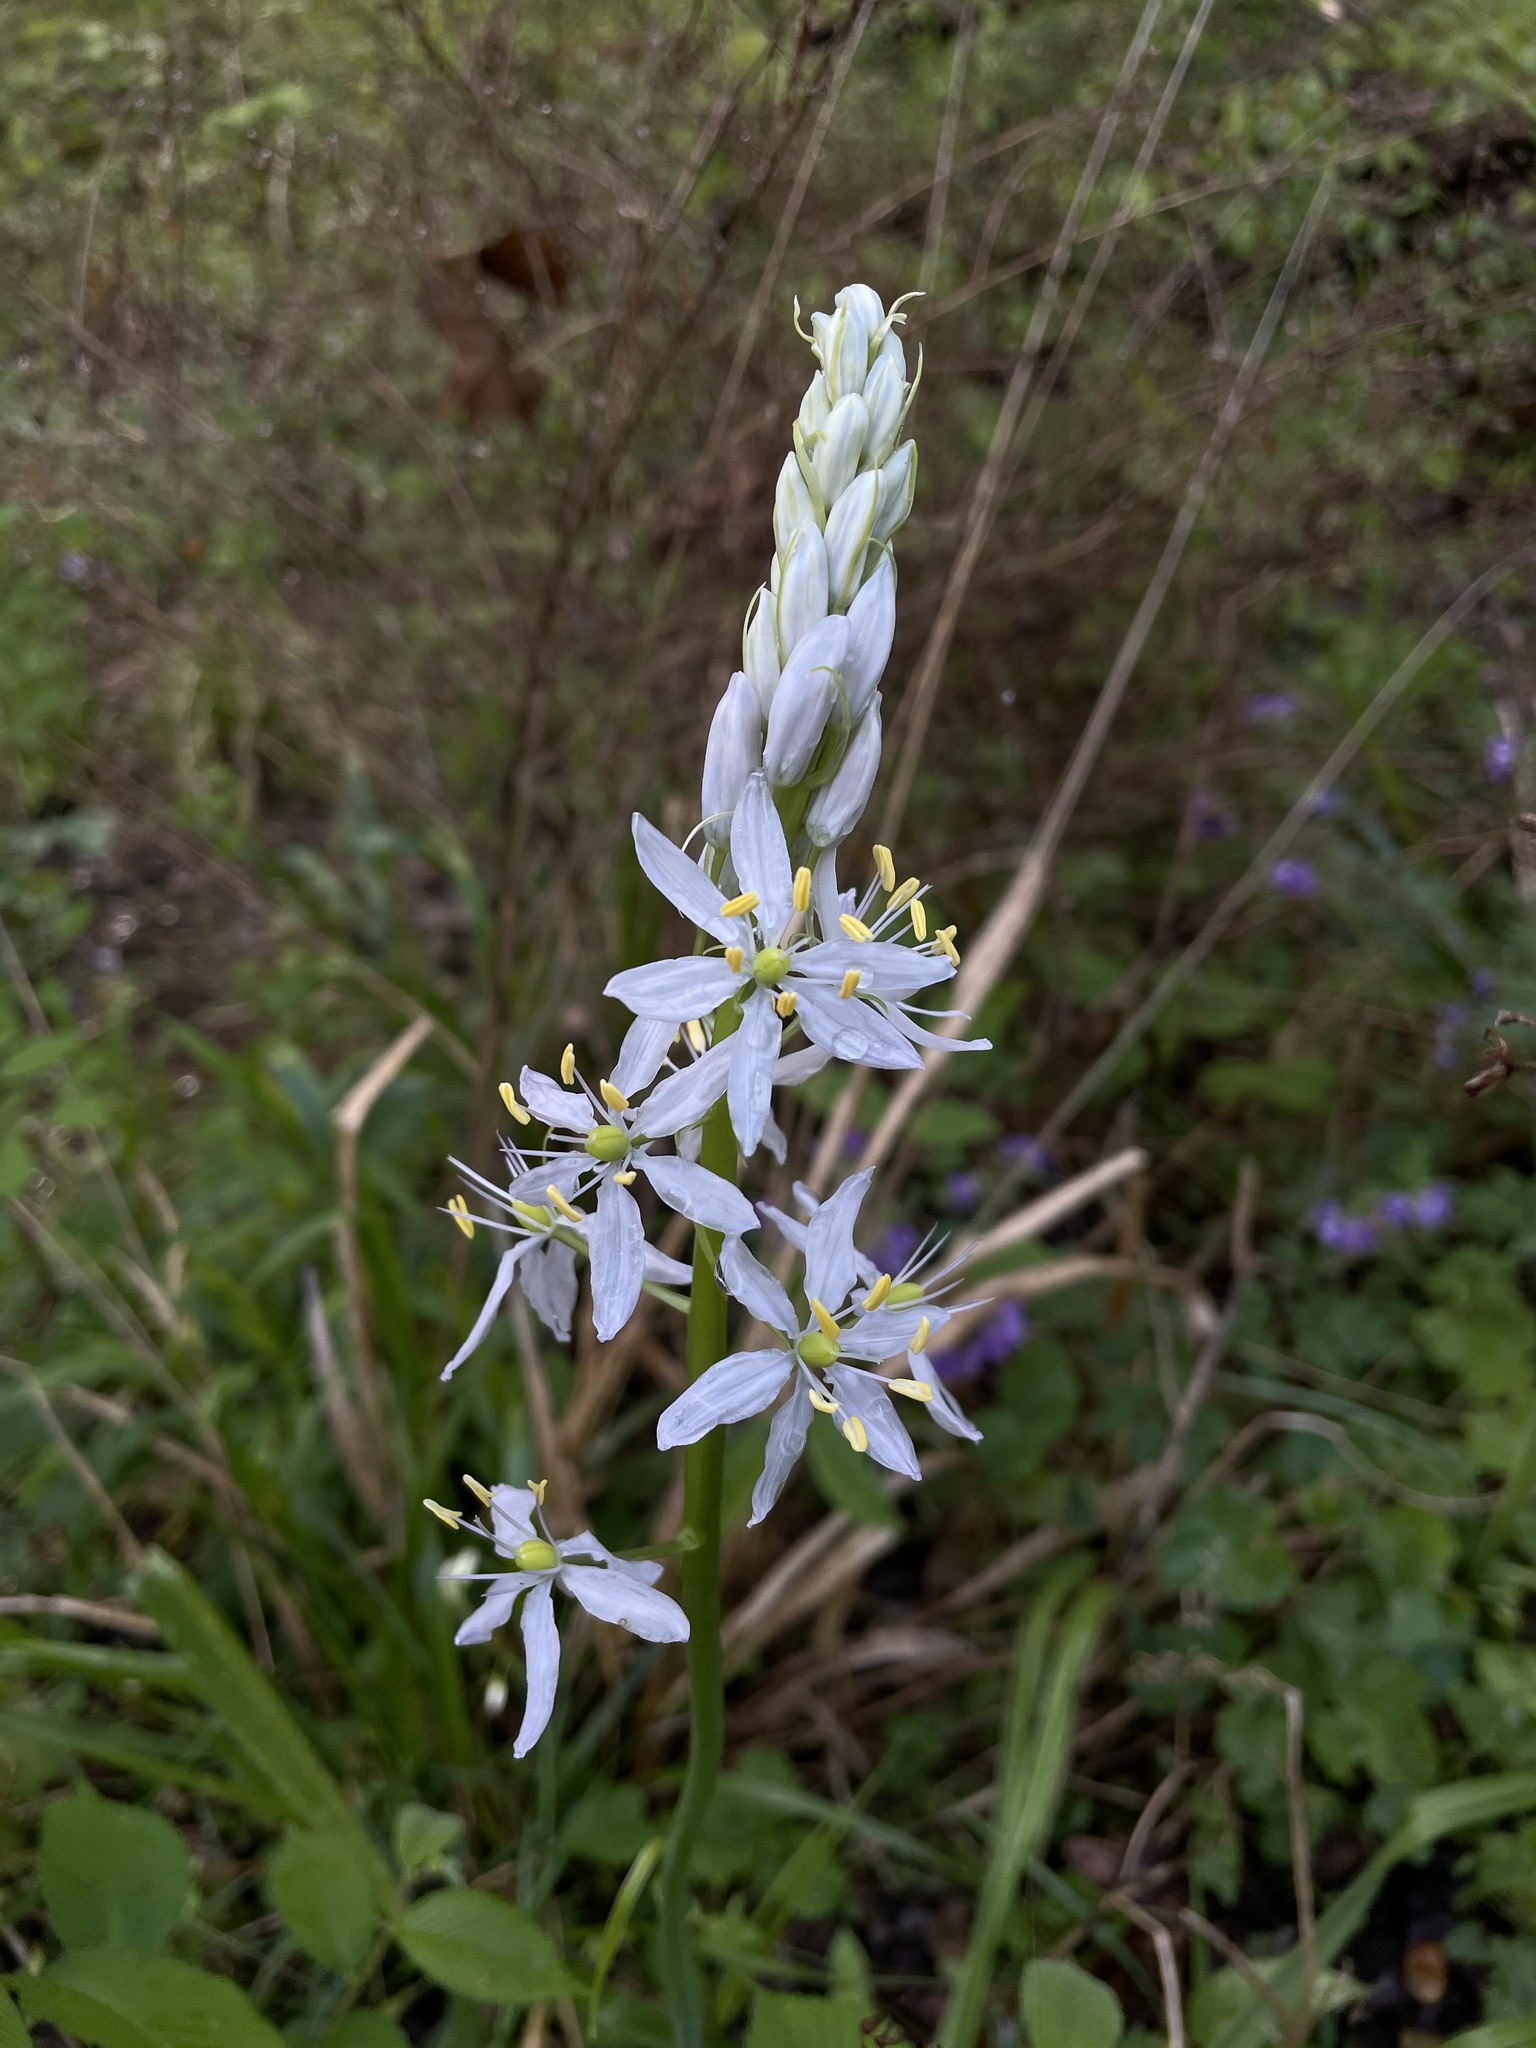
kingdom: Plantae
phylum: Tracheophyta
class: Liliopsida
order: Asparagales
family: Asparagaceae
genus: Camassia
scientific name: Camassia scilloides
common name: Wild hyacinth
